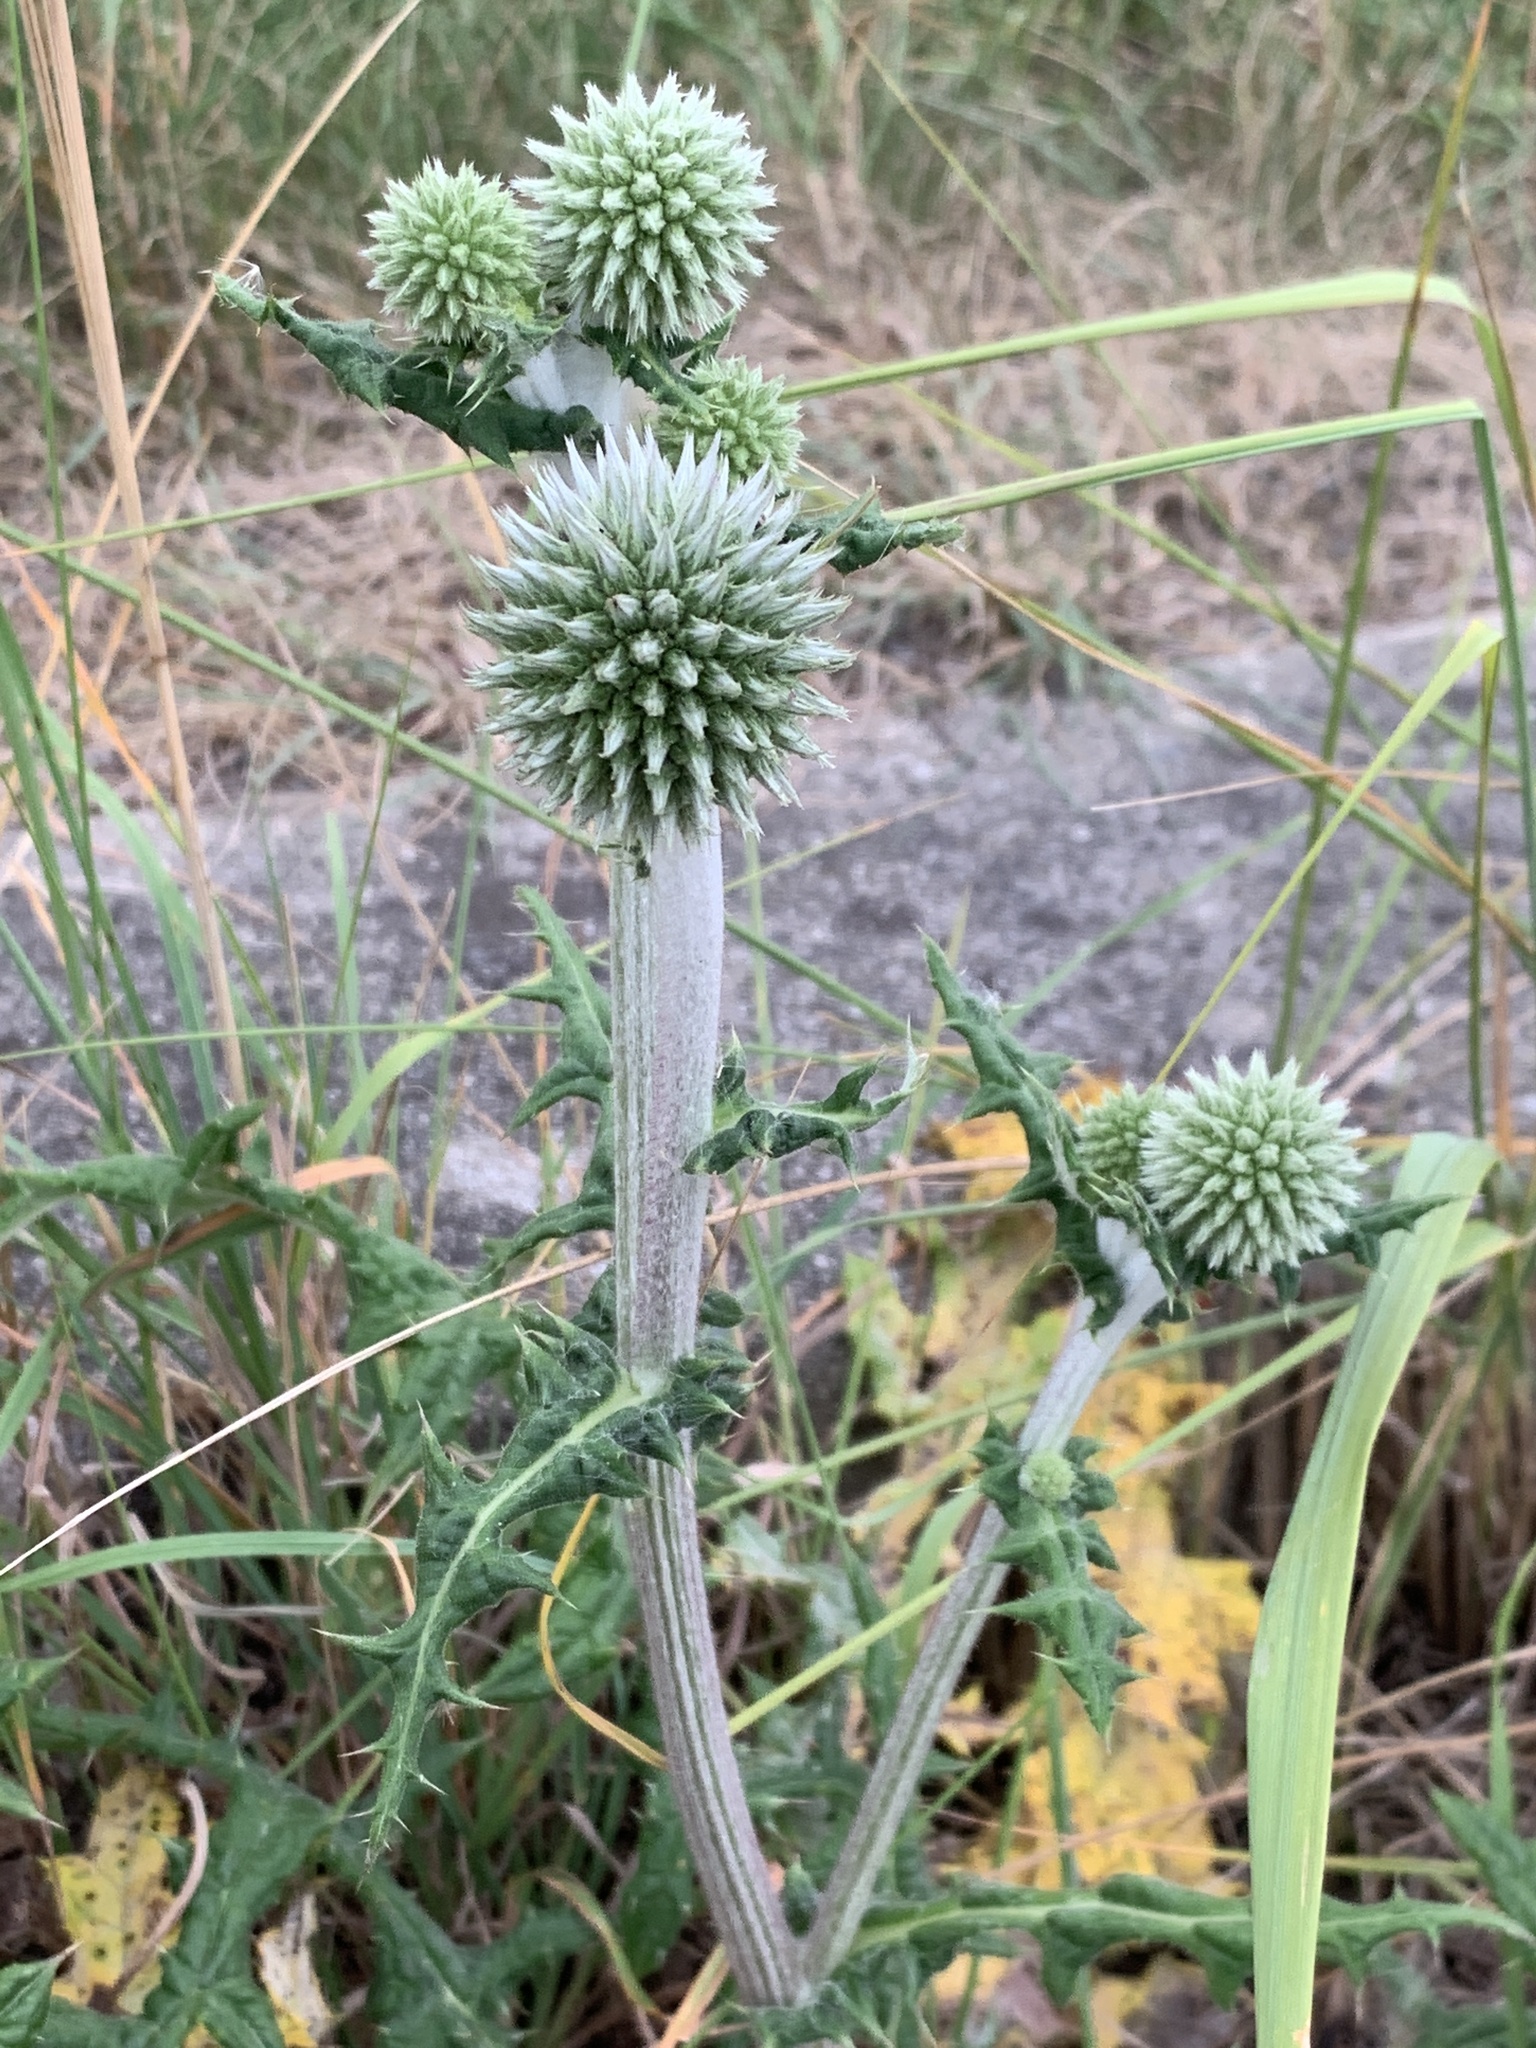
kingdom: Plantae
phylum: Tracheophyta
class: Magnoliopsida
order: Asterales
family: Asteraceae
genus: Echinops
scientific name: Echinops sphaerocephalus
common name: Glandular globe-thistle
